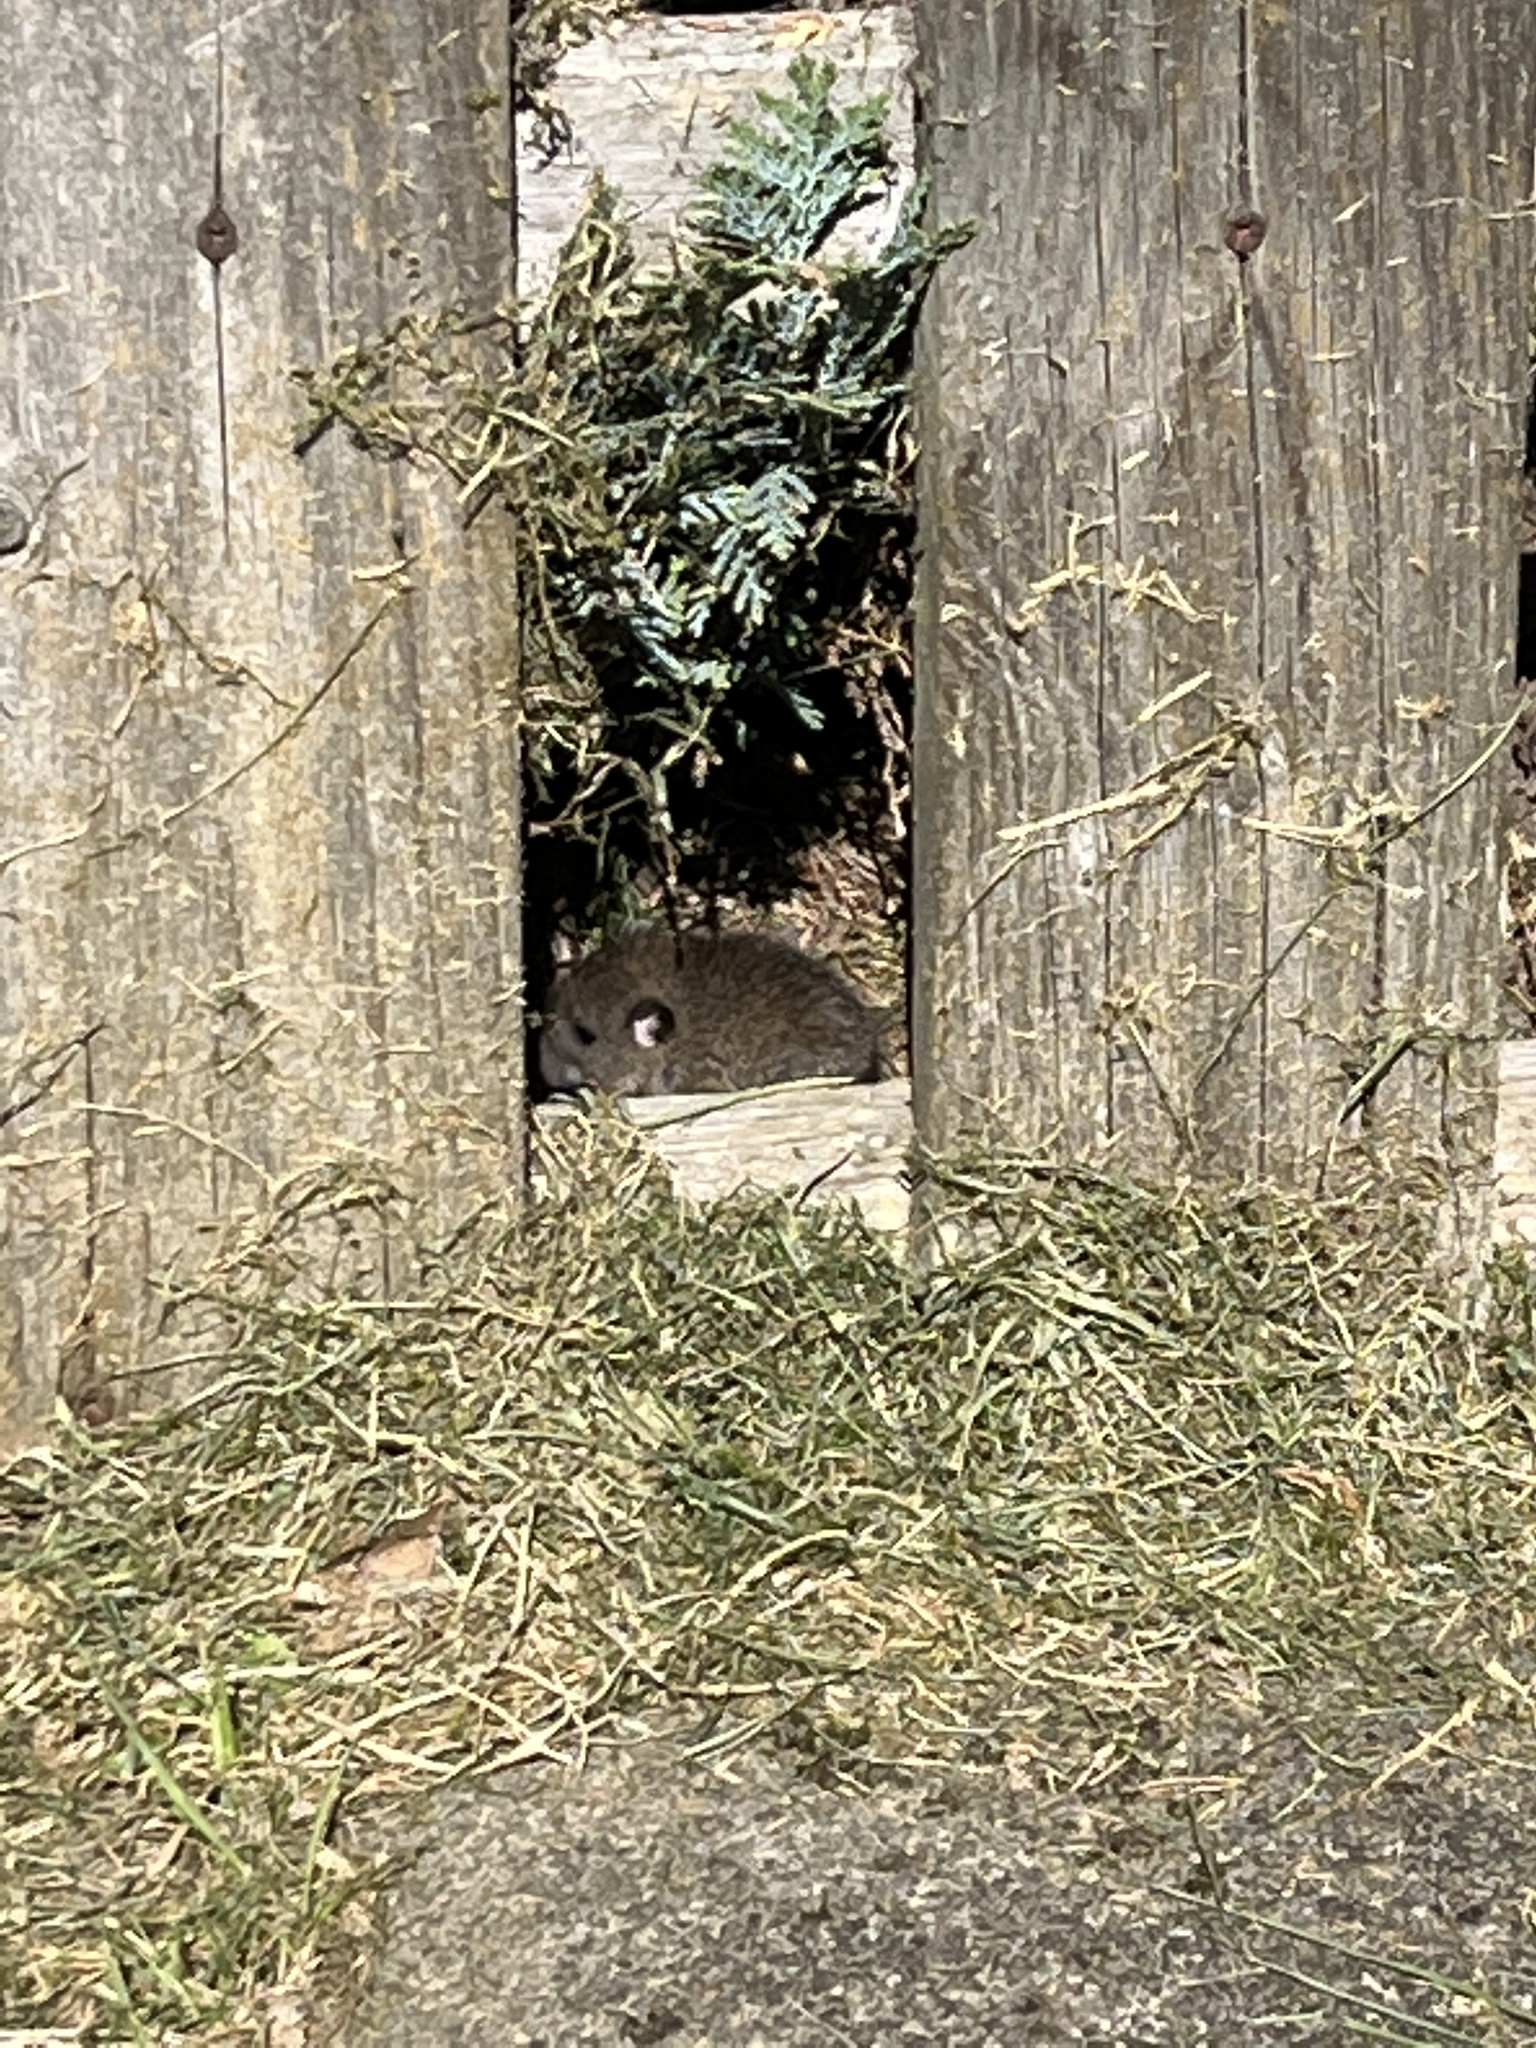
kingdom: Animalia
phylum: Chordata
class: Mammalia
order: Rodentia
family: Muridae
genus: Mus
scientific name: Mus musculus
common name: House mouse
